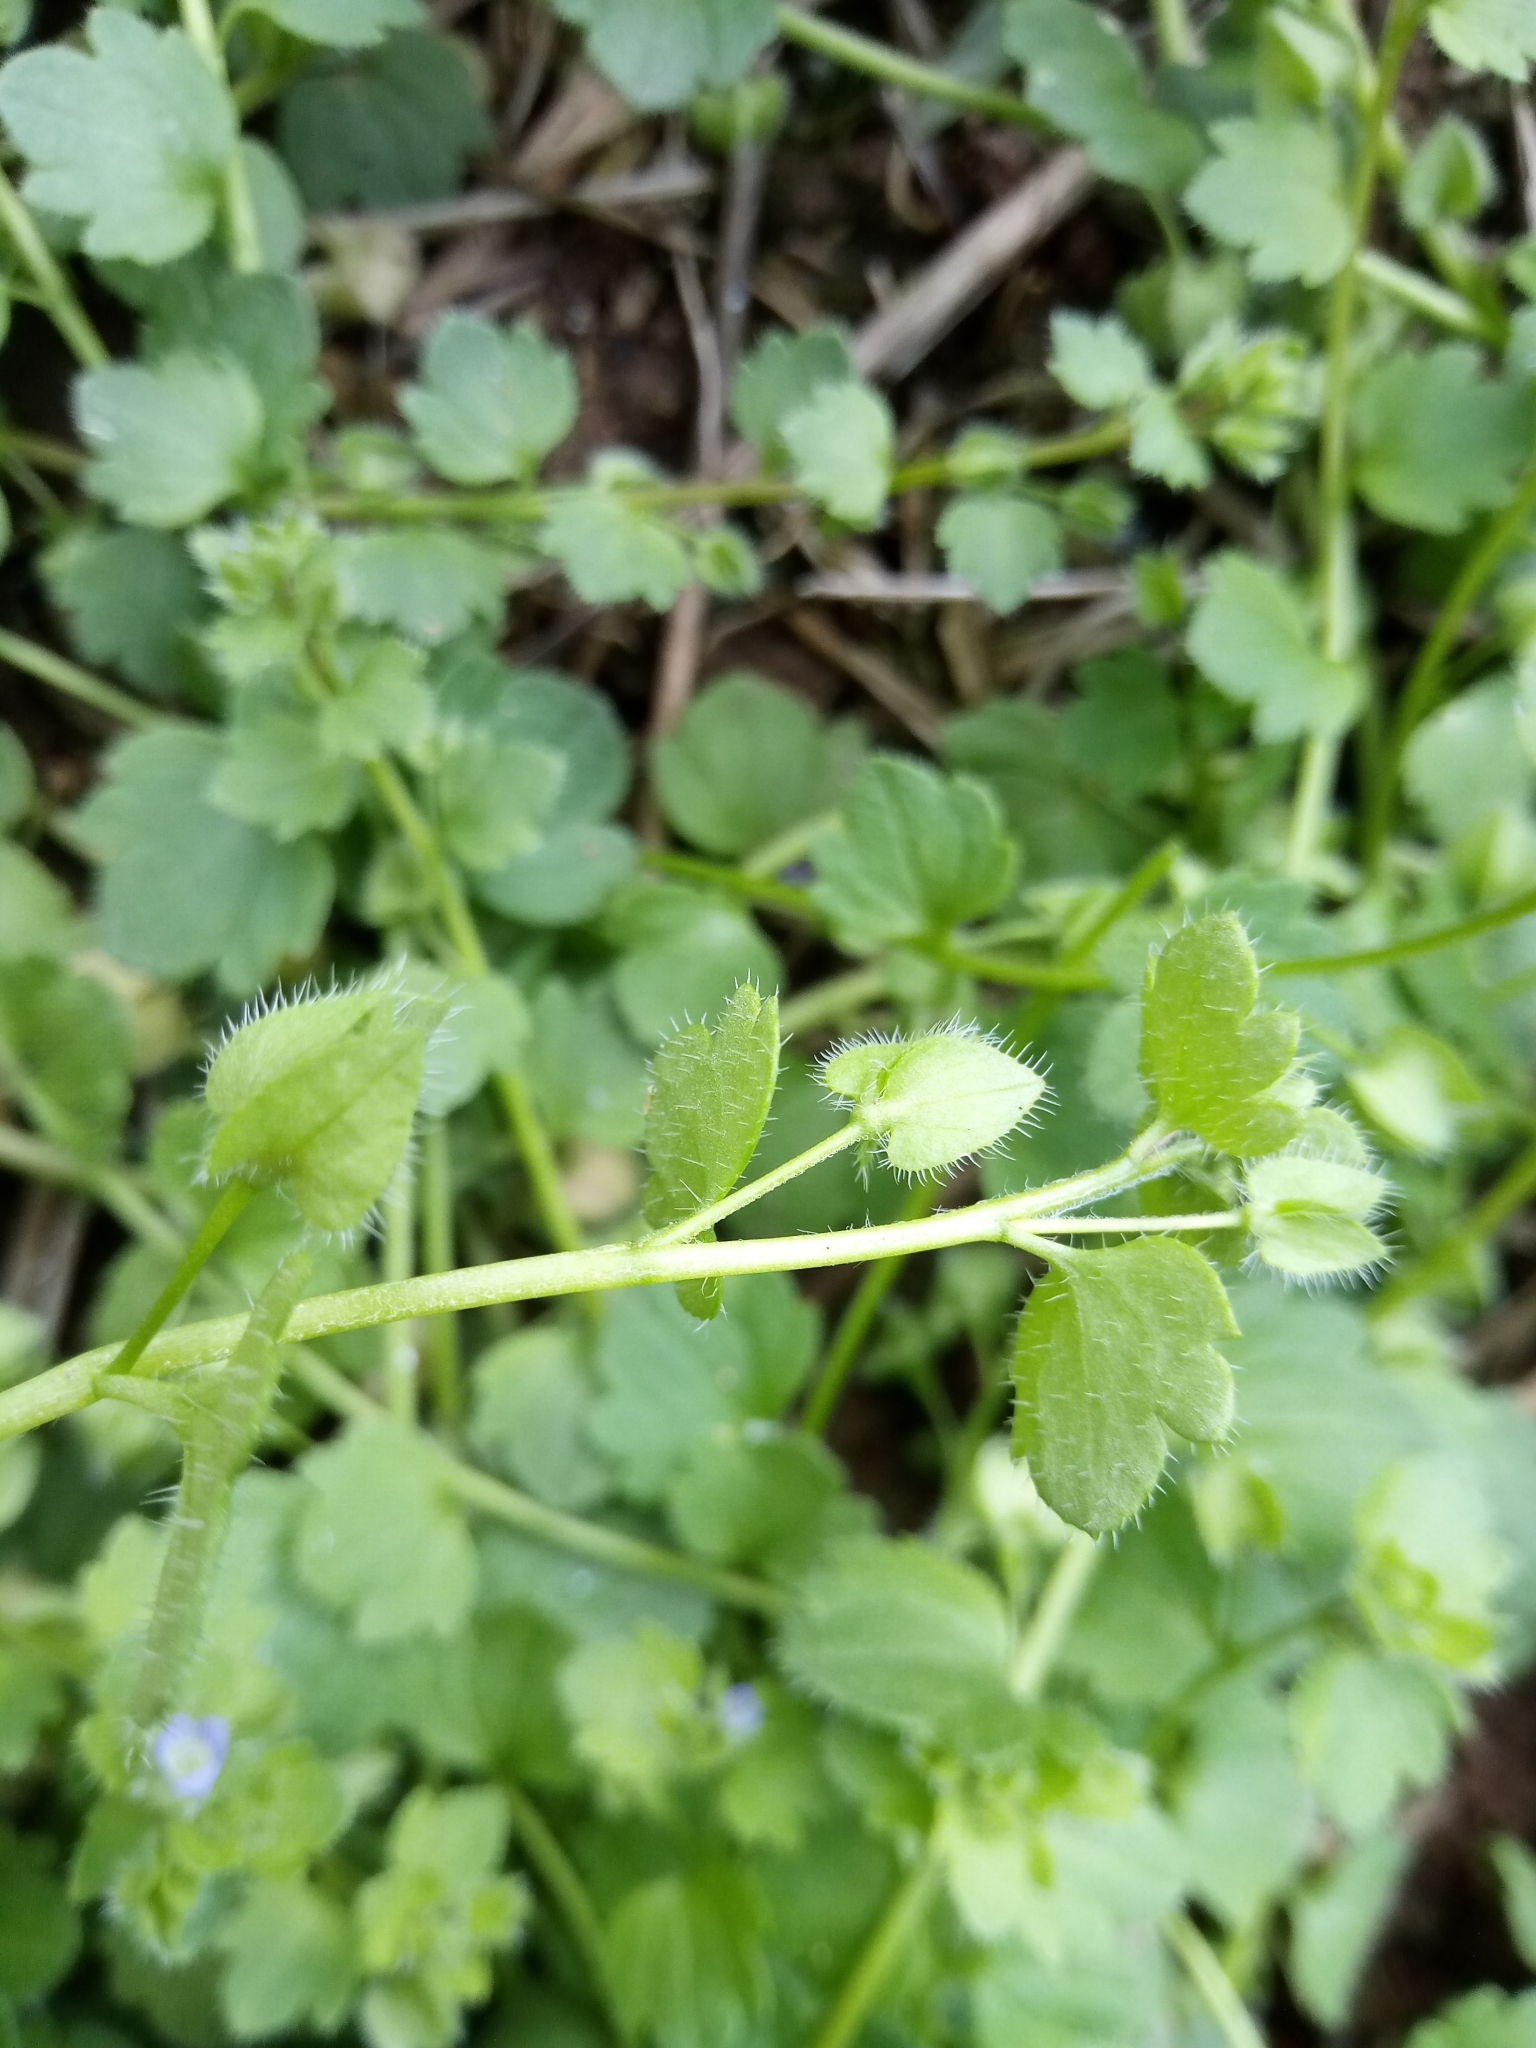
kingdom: Plantae
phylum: Tracheophyta
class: Magnoliopsida
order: Lamiales
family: Plantaginaceae
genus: Veronica
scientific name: Veronica hederifolia
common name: Ivy-leaved speedwell
